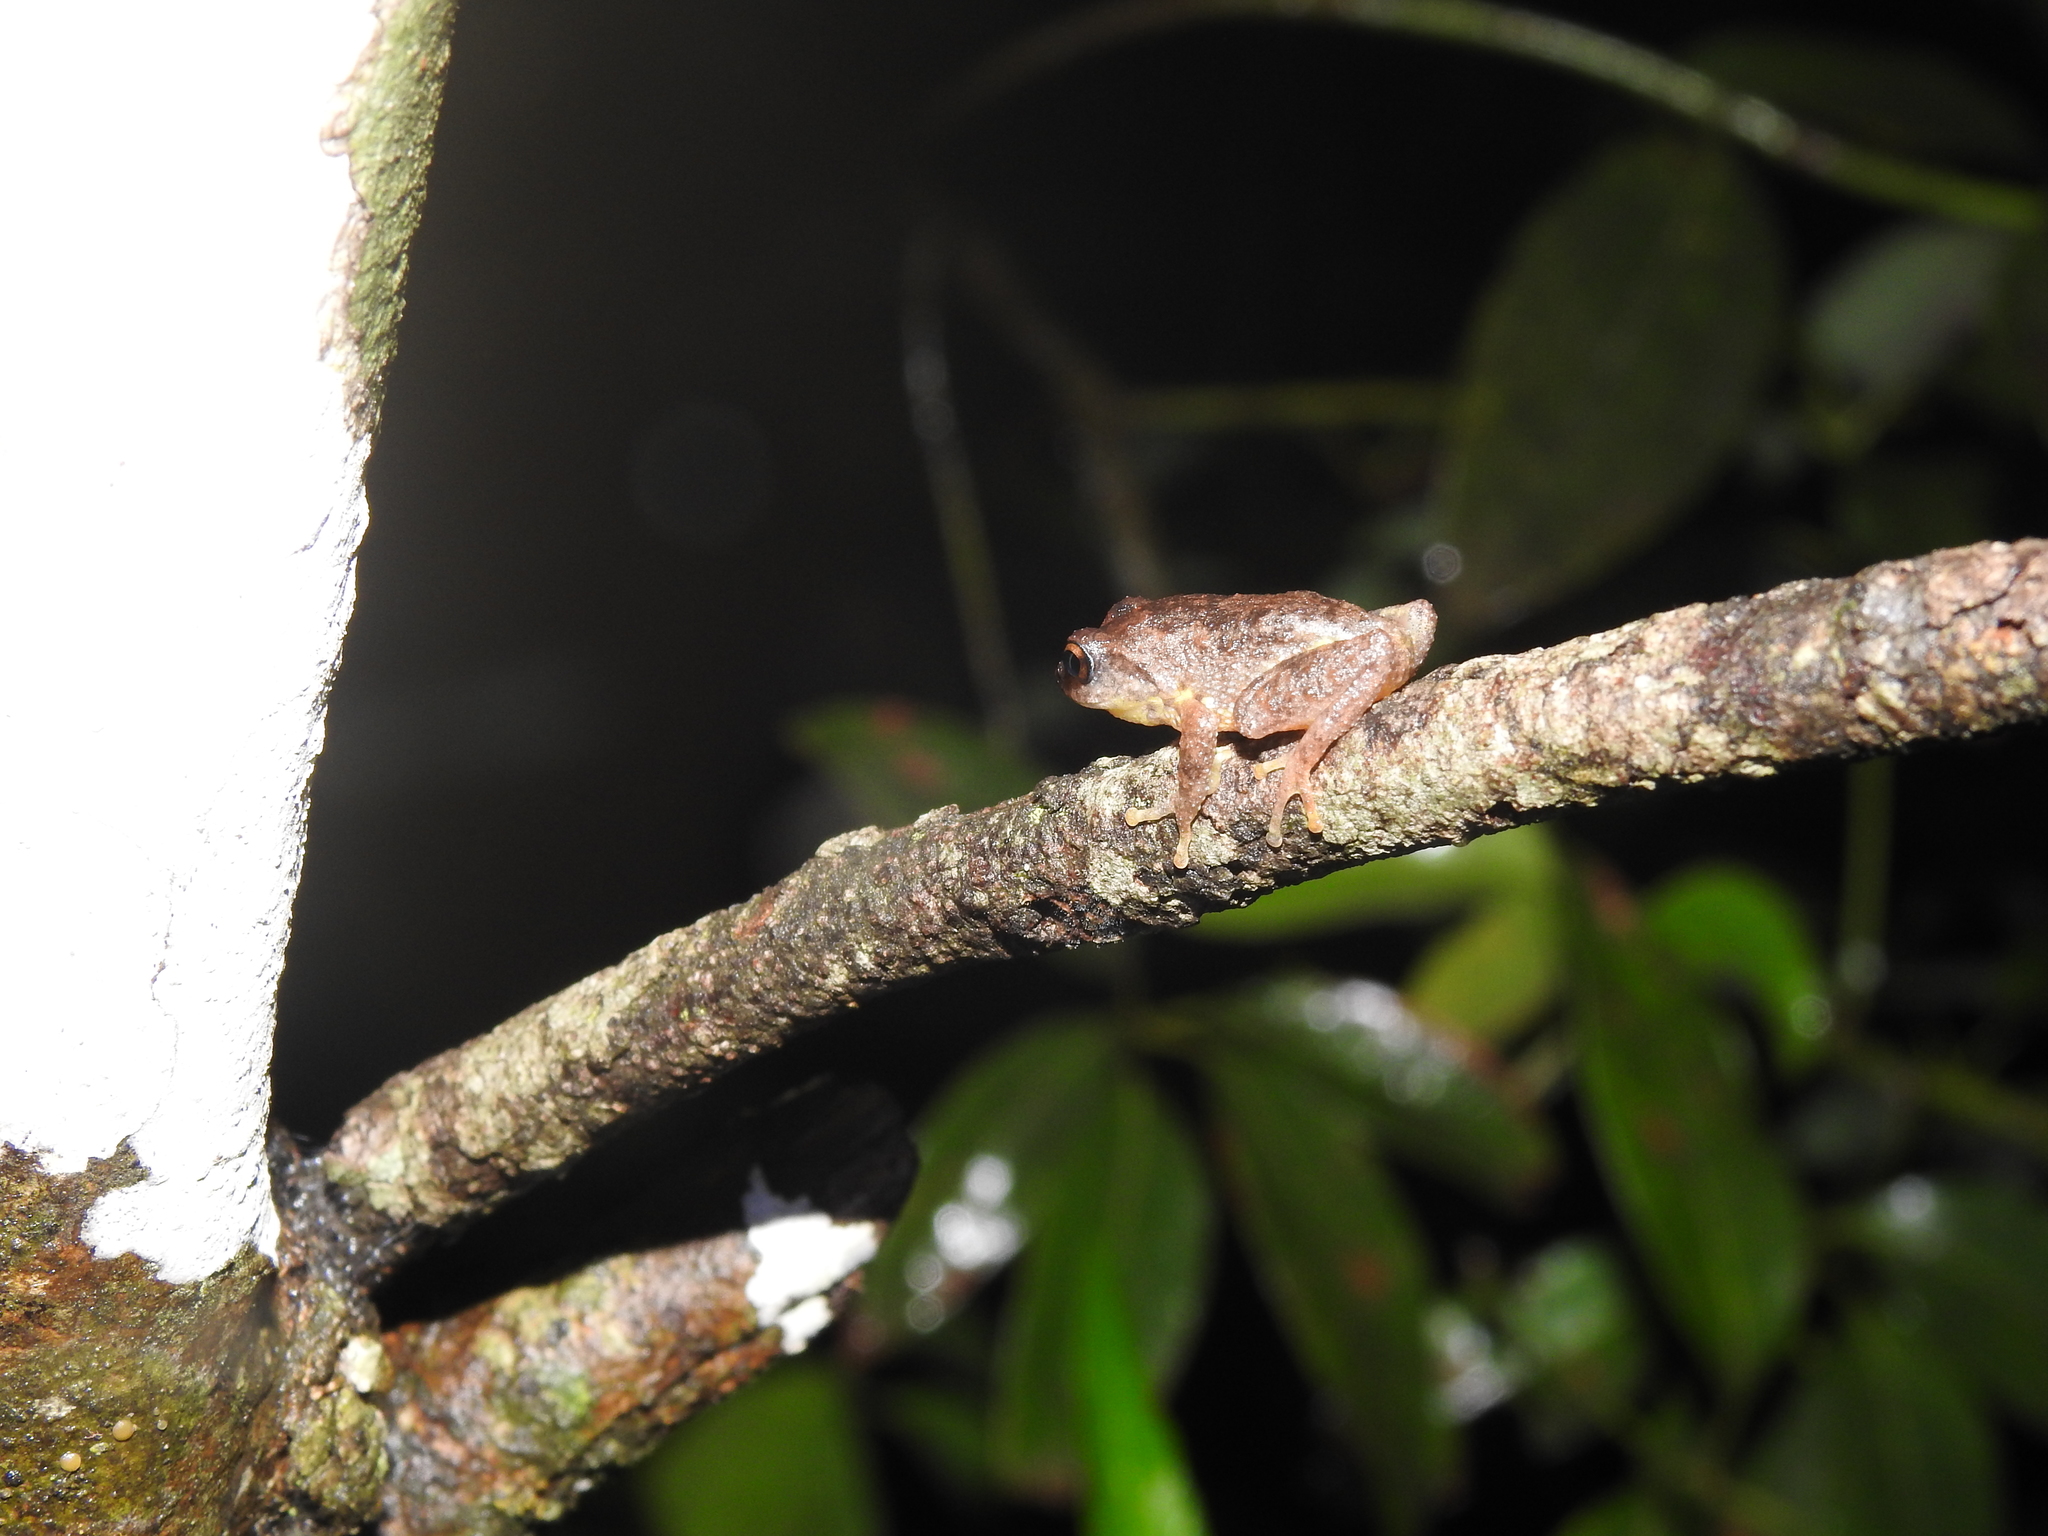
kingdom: Animalia
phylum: Chordata
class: Amphibia
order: Anura
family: Rhacophoridae
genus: Raorchestes
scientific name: Raorchestes dubois
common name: Koadaikanal bush frog
